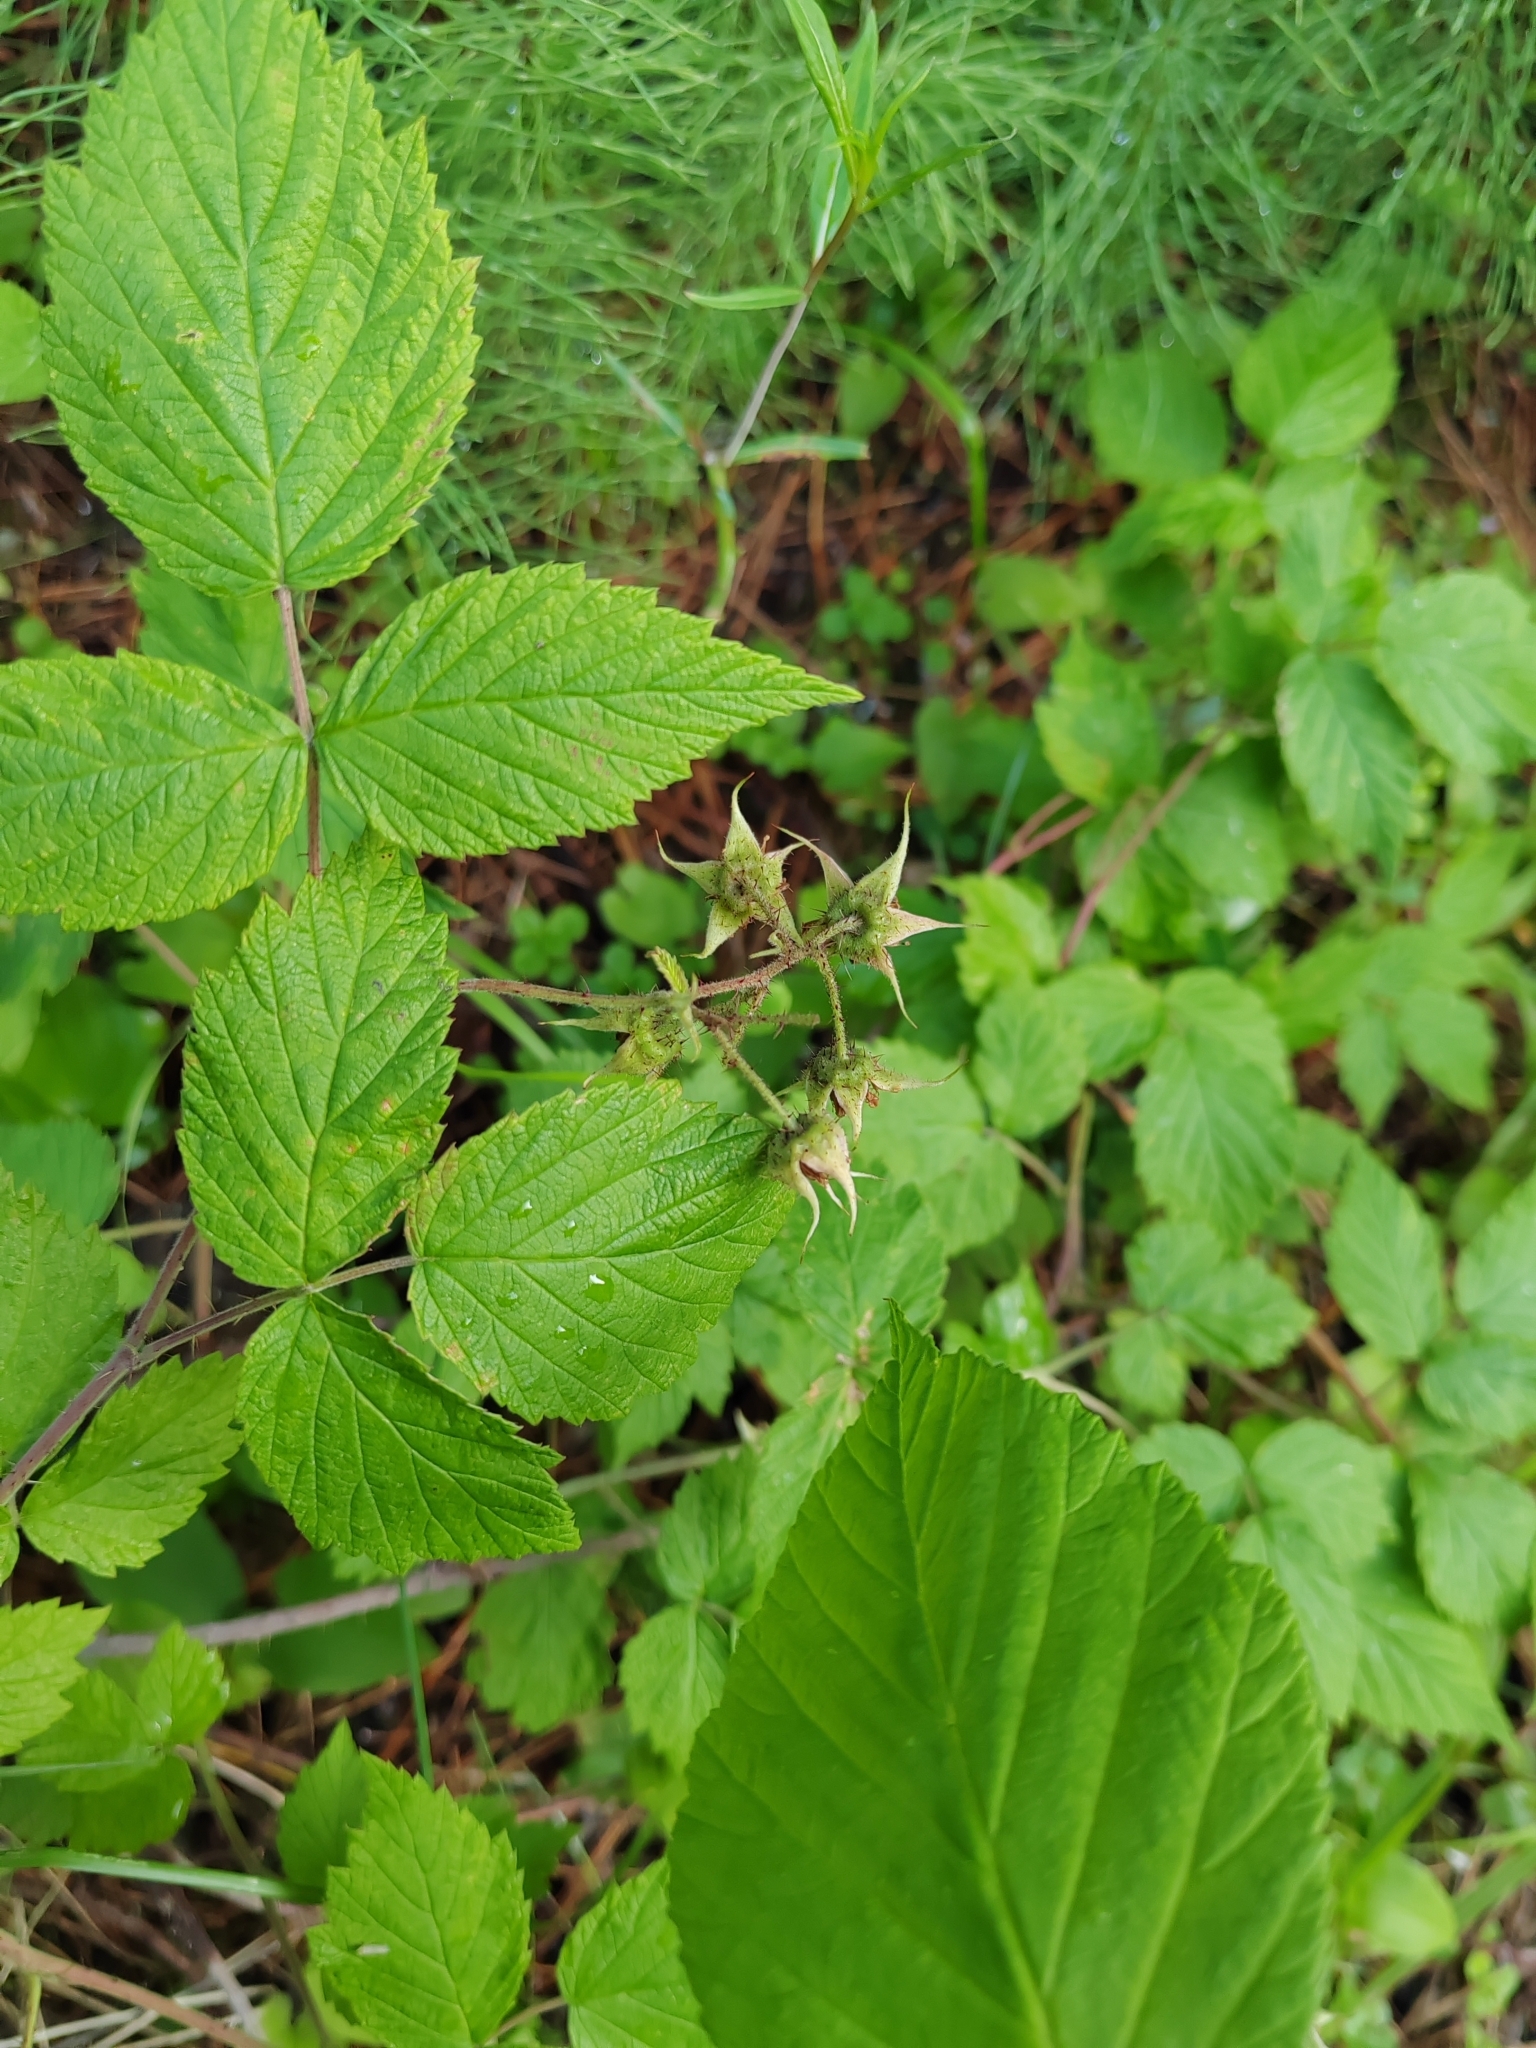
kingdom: Plantae
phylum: Tracheophyta
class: Magnoliopsida
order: Rosales
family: Rosaceae
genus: Rubus
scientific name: Rubus idaeus
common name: Raspberry
